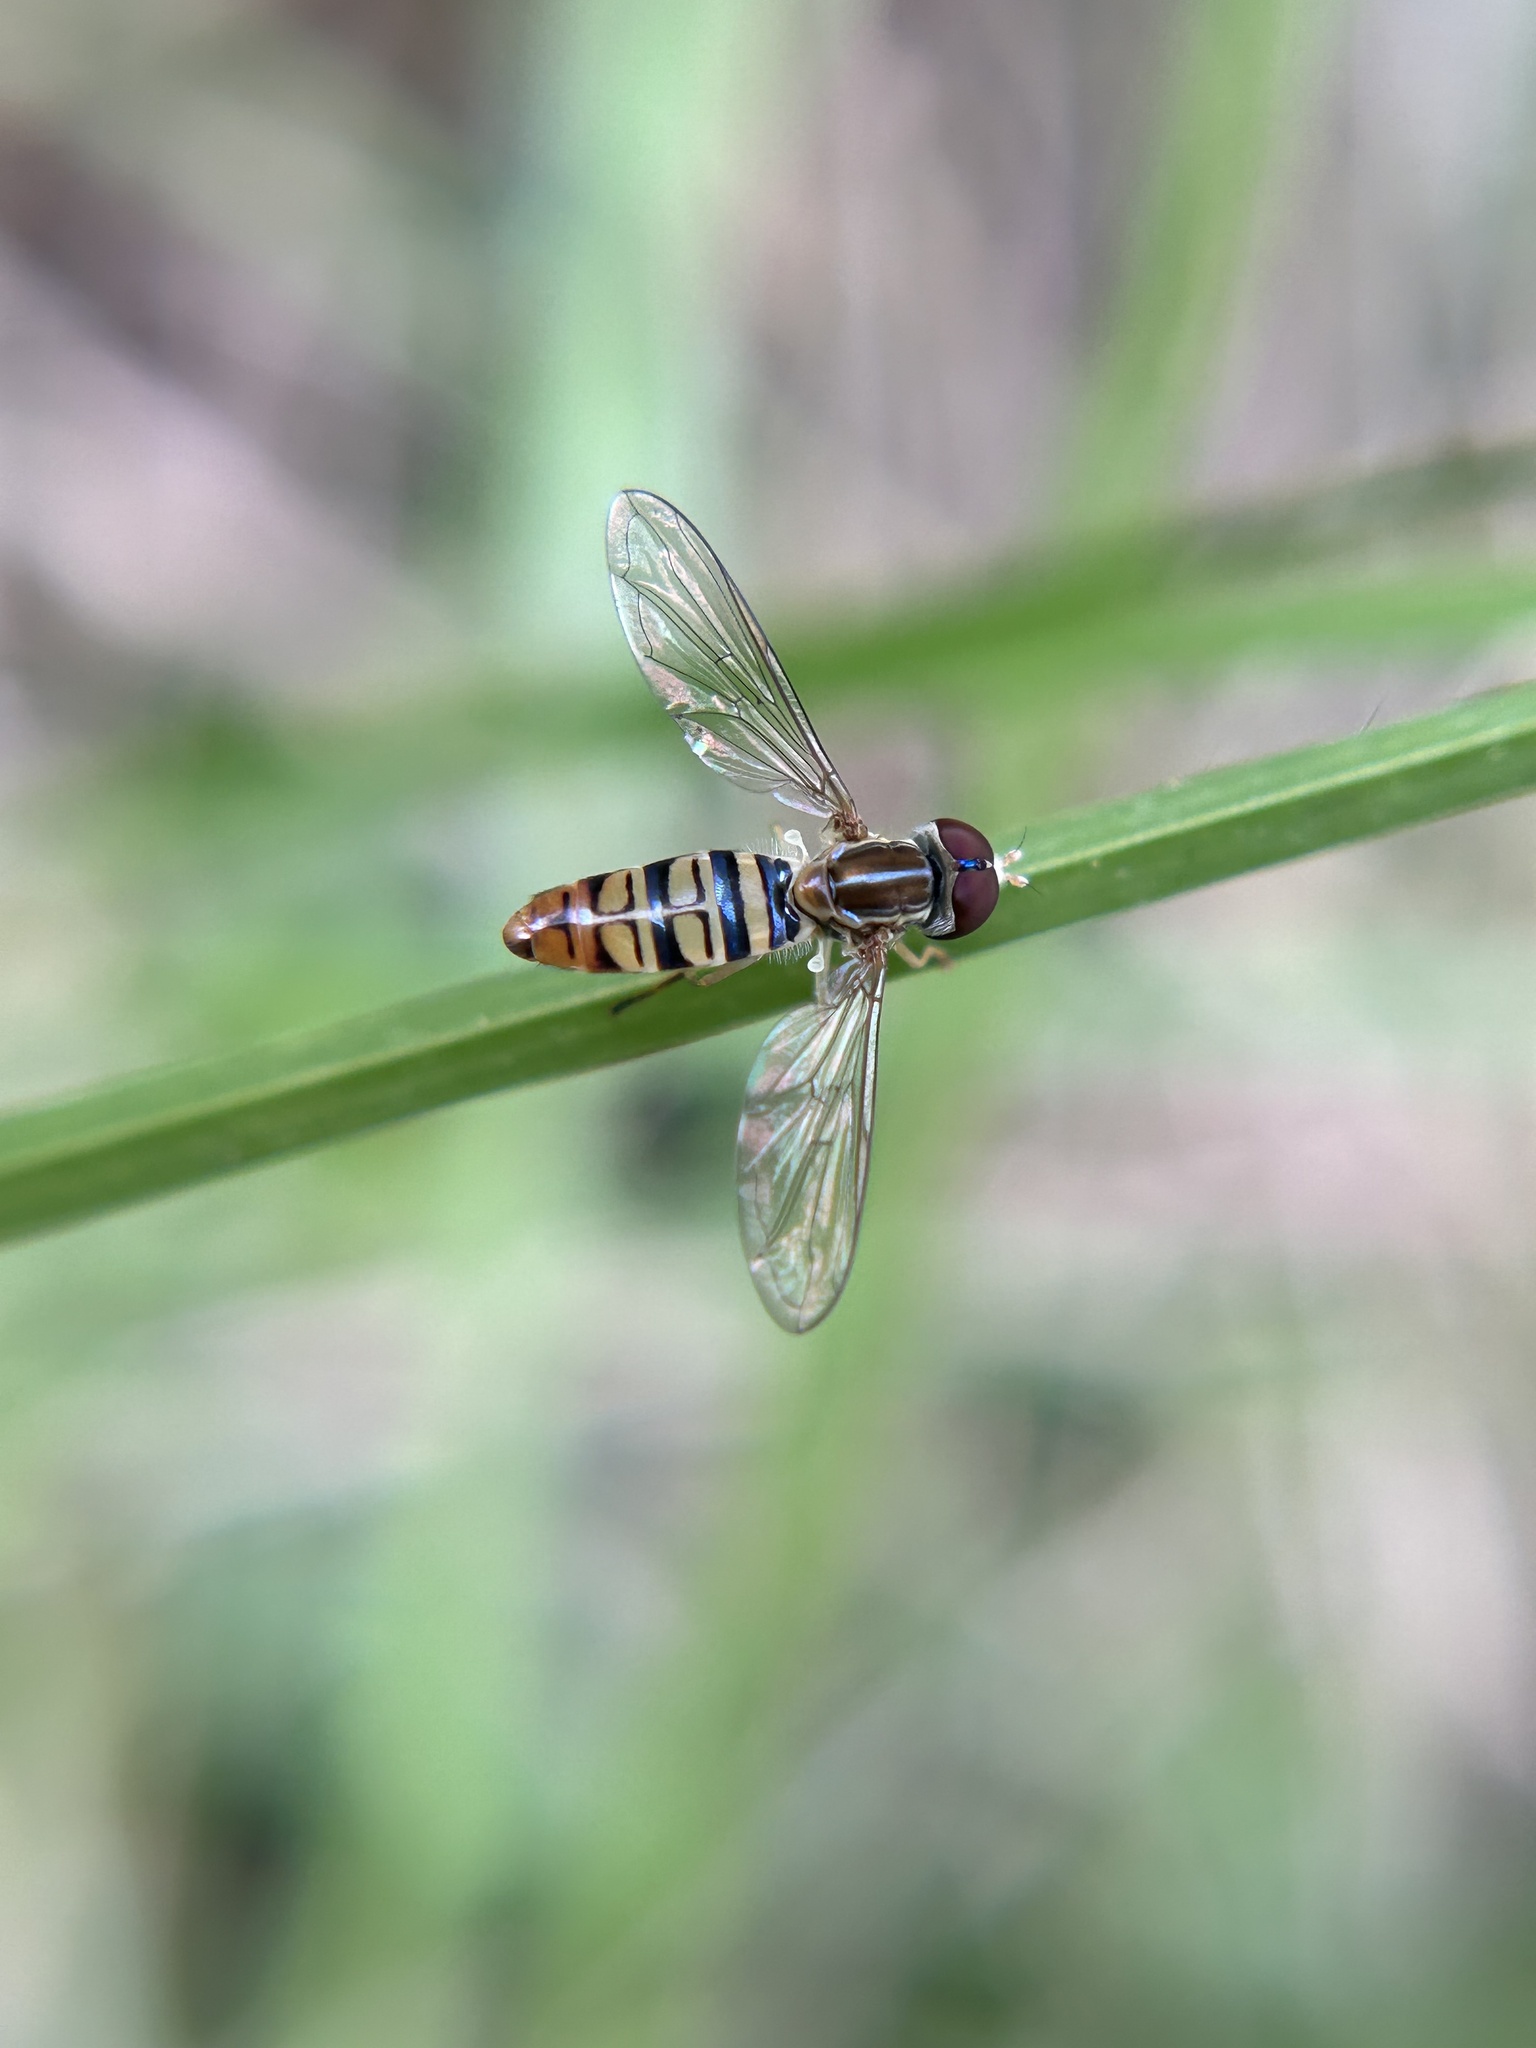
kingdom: Animalia
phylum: Arthropoda
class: Insecta
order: Diptera
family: Syrphidae
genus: Toxomerus
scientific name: Toxomerus politus
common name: Maize calligrapher
